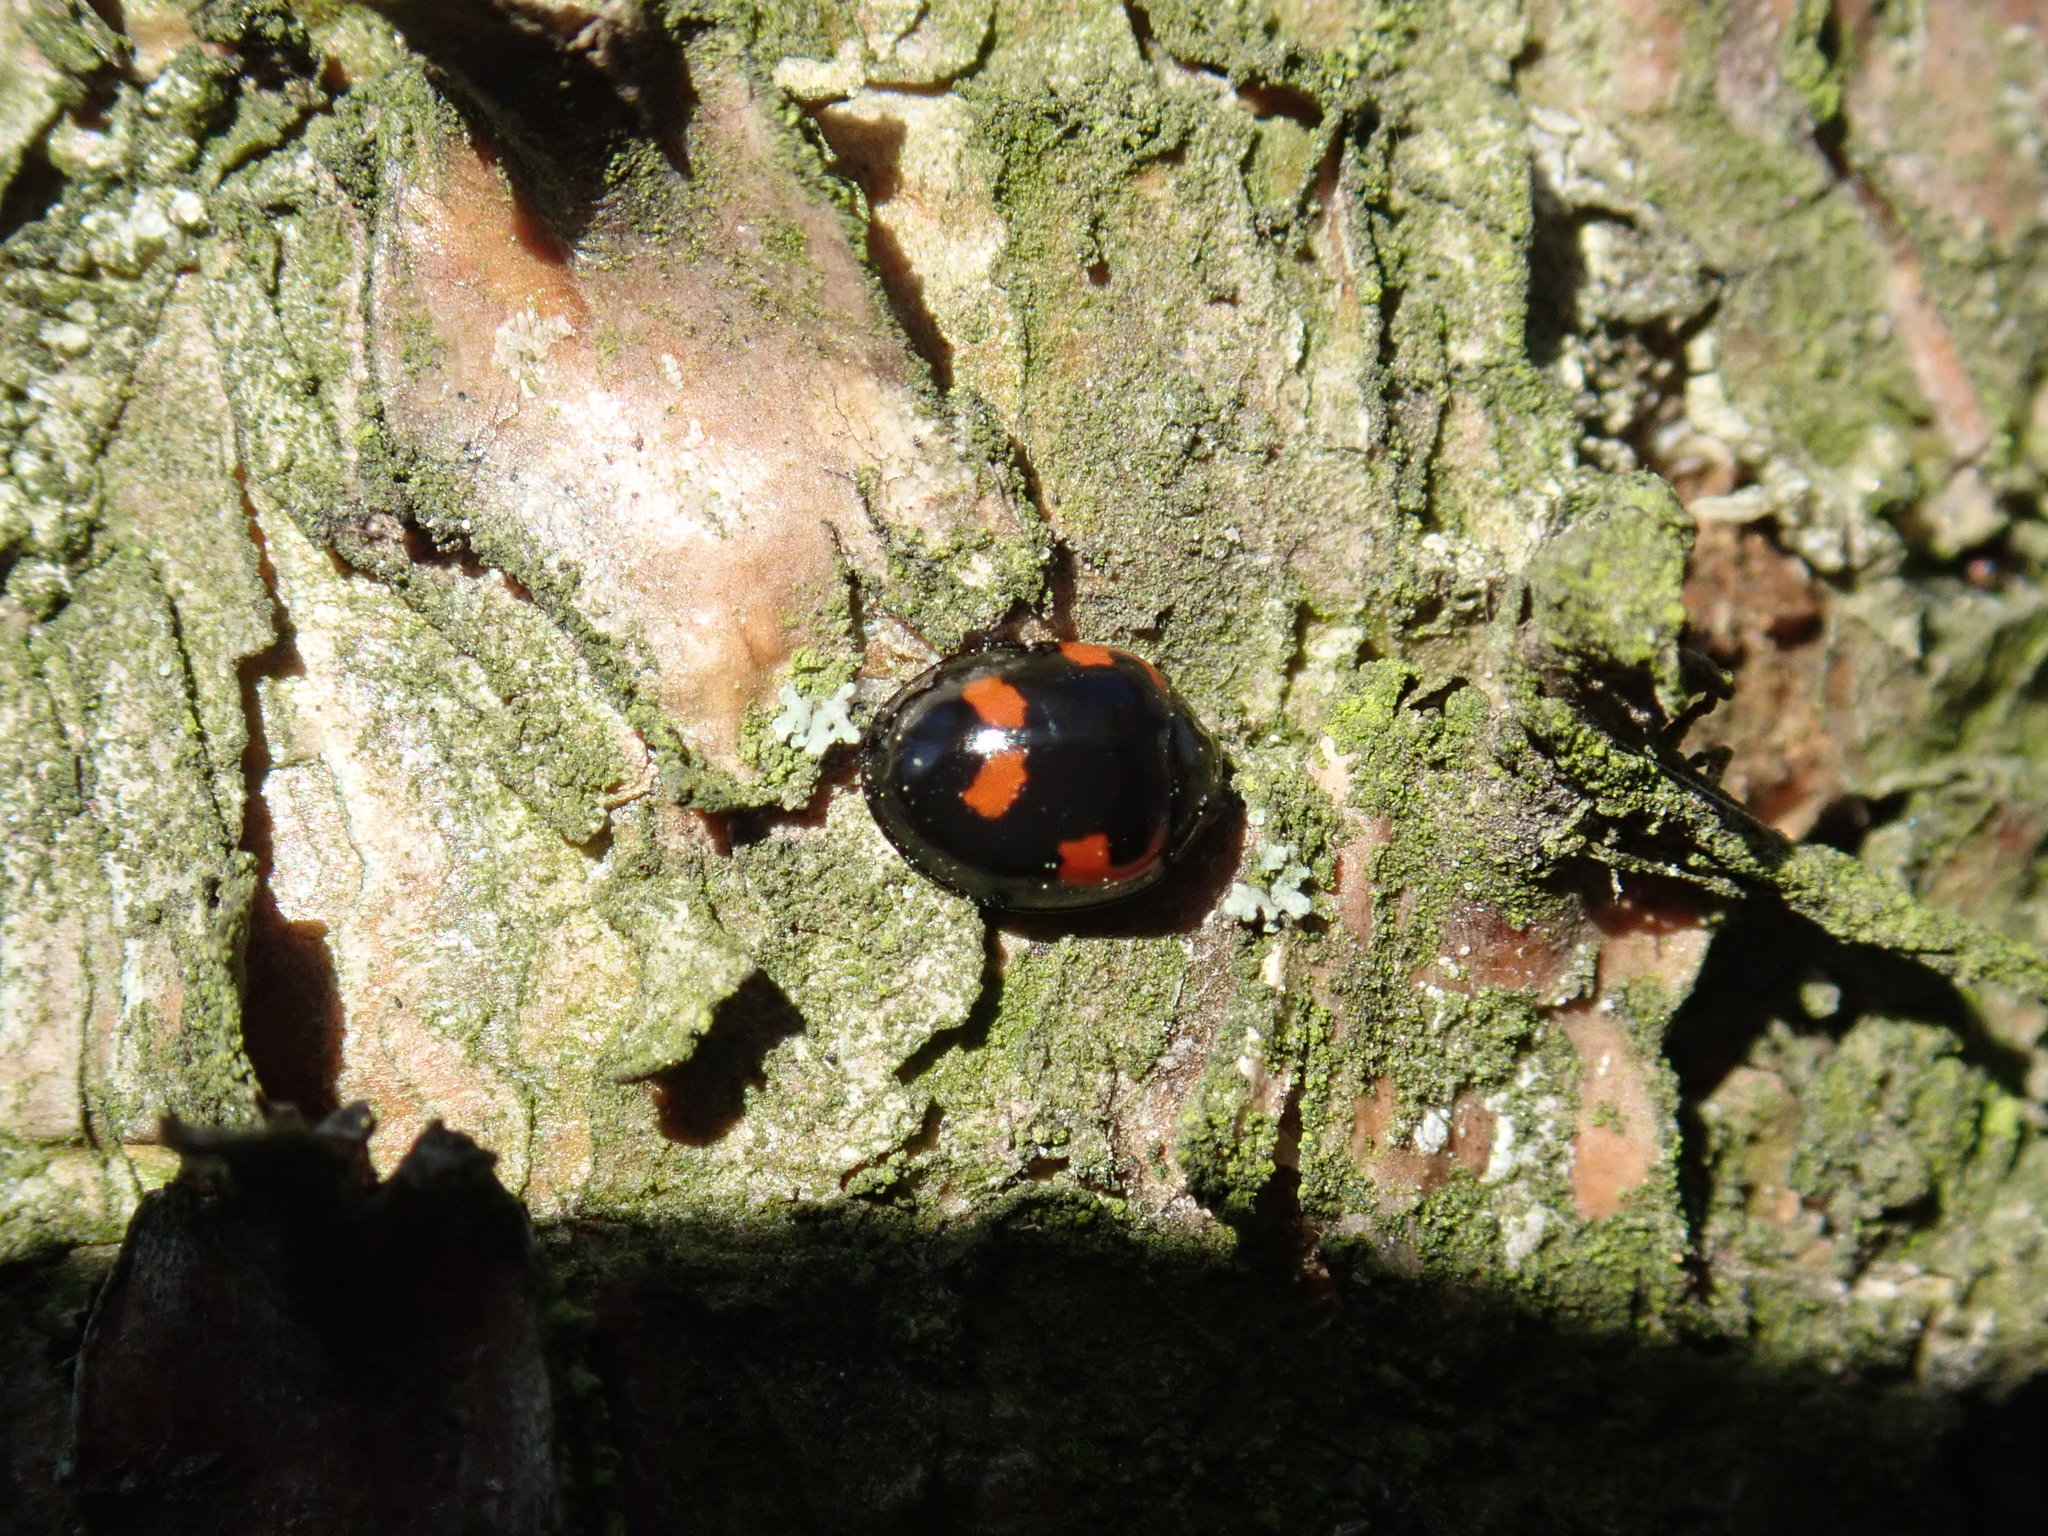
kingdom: Animalia
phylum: Arthropoda
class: Insecta
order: Coleoptera
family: Coccinellidae
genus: Brumus
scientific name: Brumus quadripustulatus
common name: Ladybird beetle
